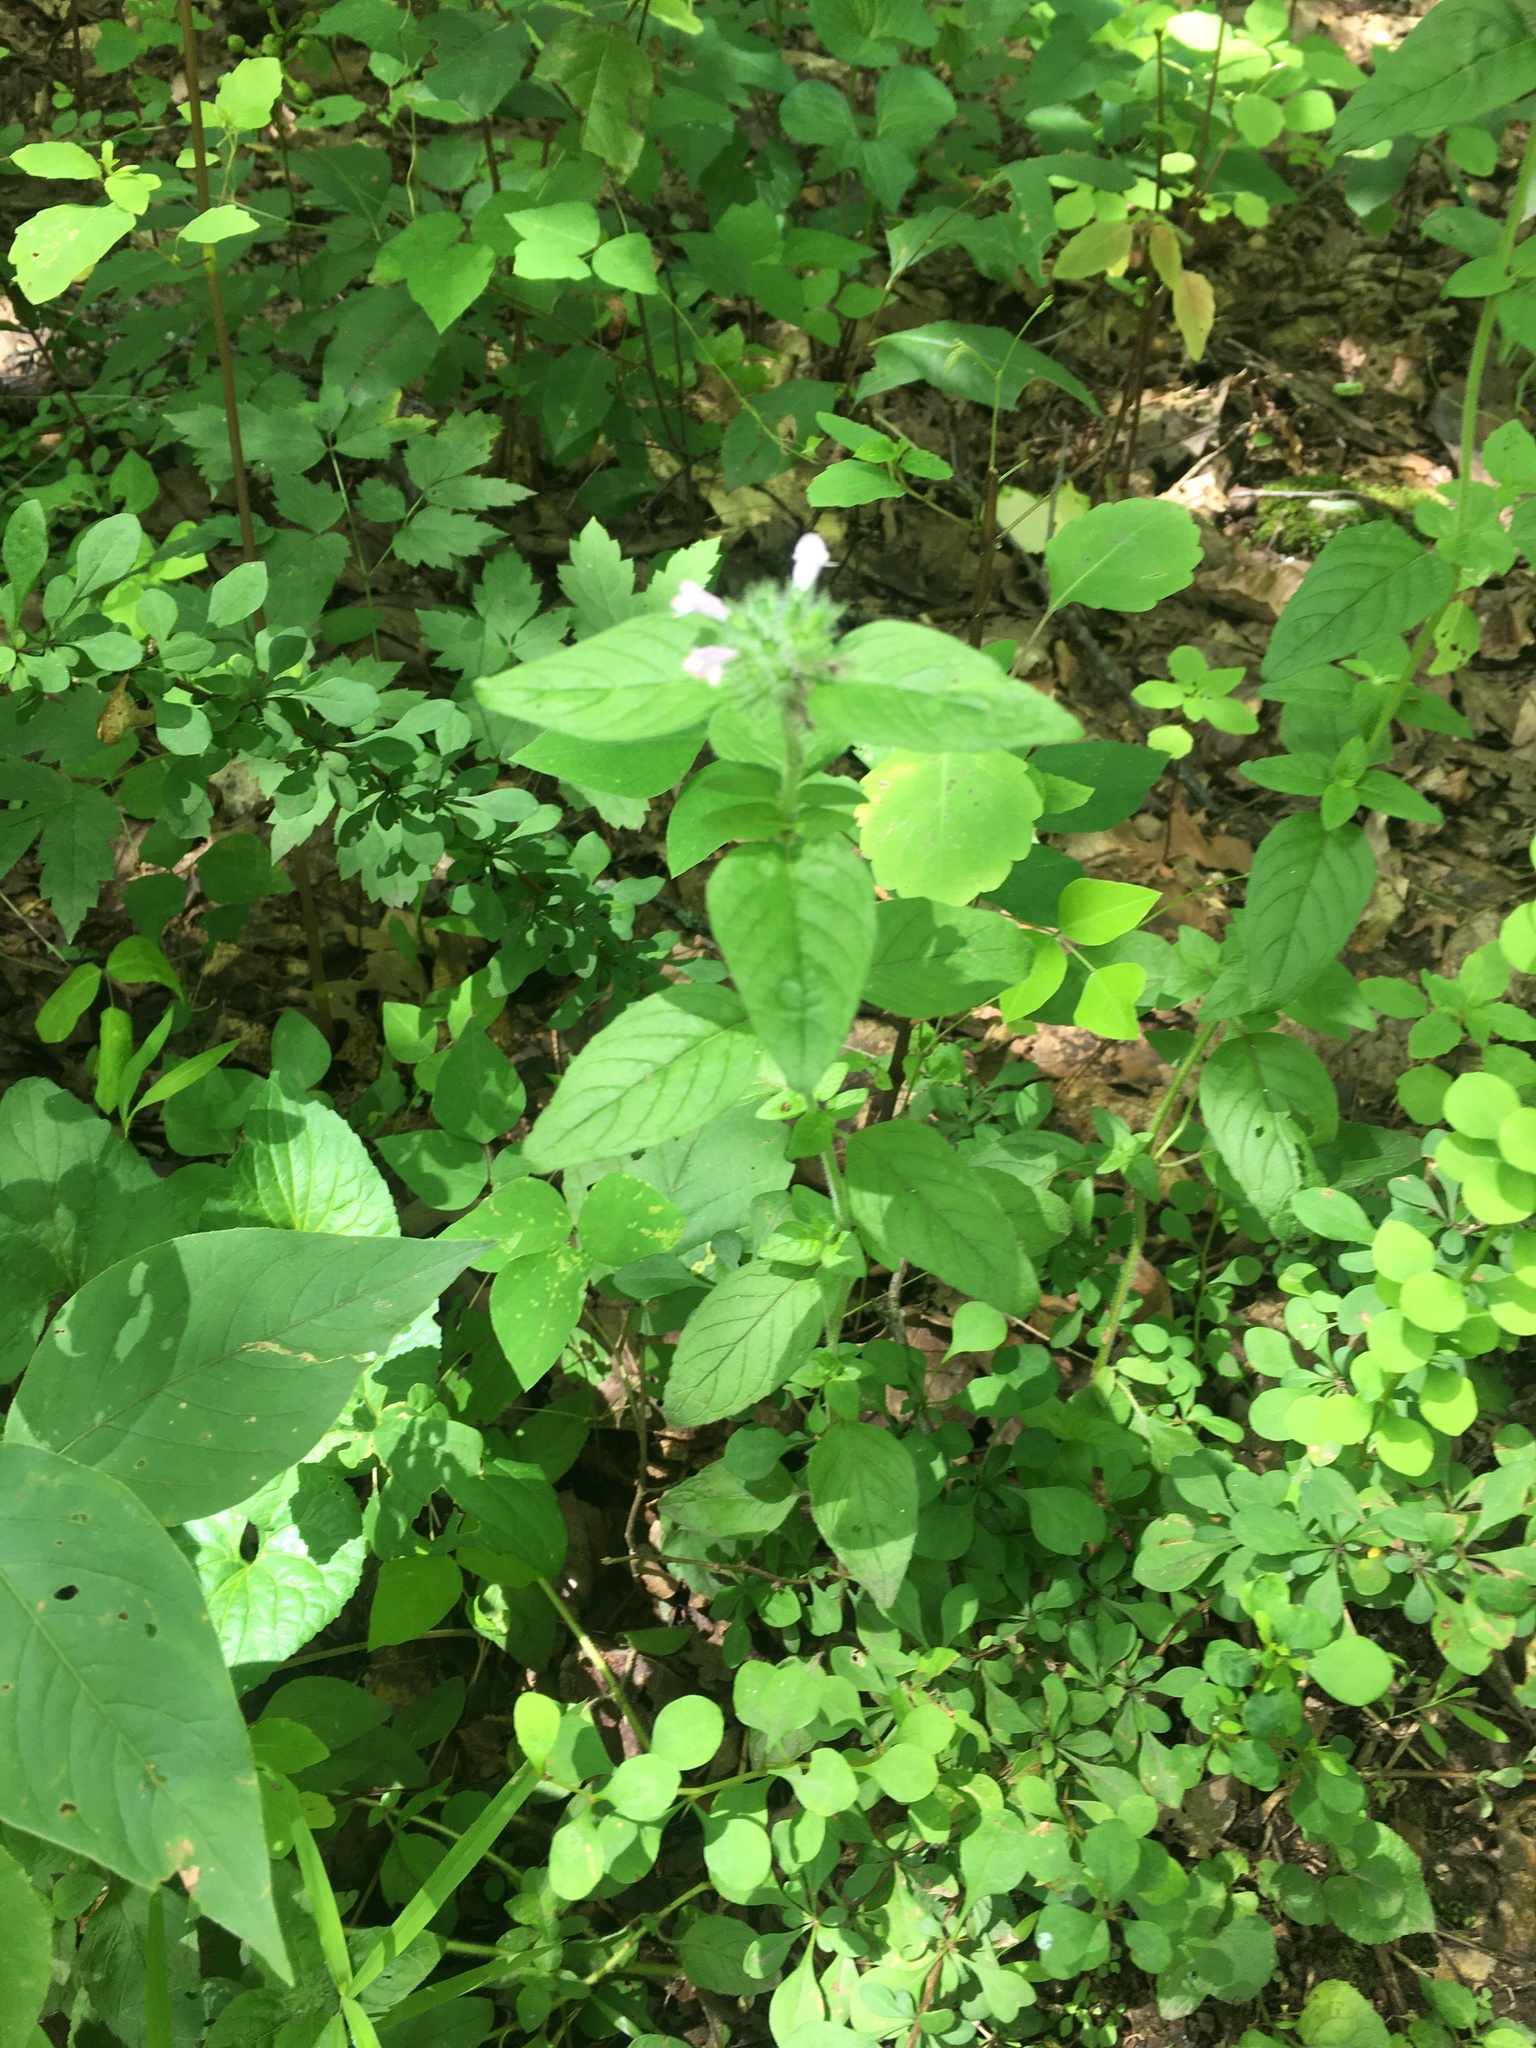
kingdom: Plantae
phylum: Tracheophyta
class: Magnoliopsida
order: Lamiales
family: Lamiaceae
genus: Clinopodium
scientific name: Clinopodium vulgare
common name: Wild basil
